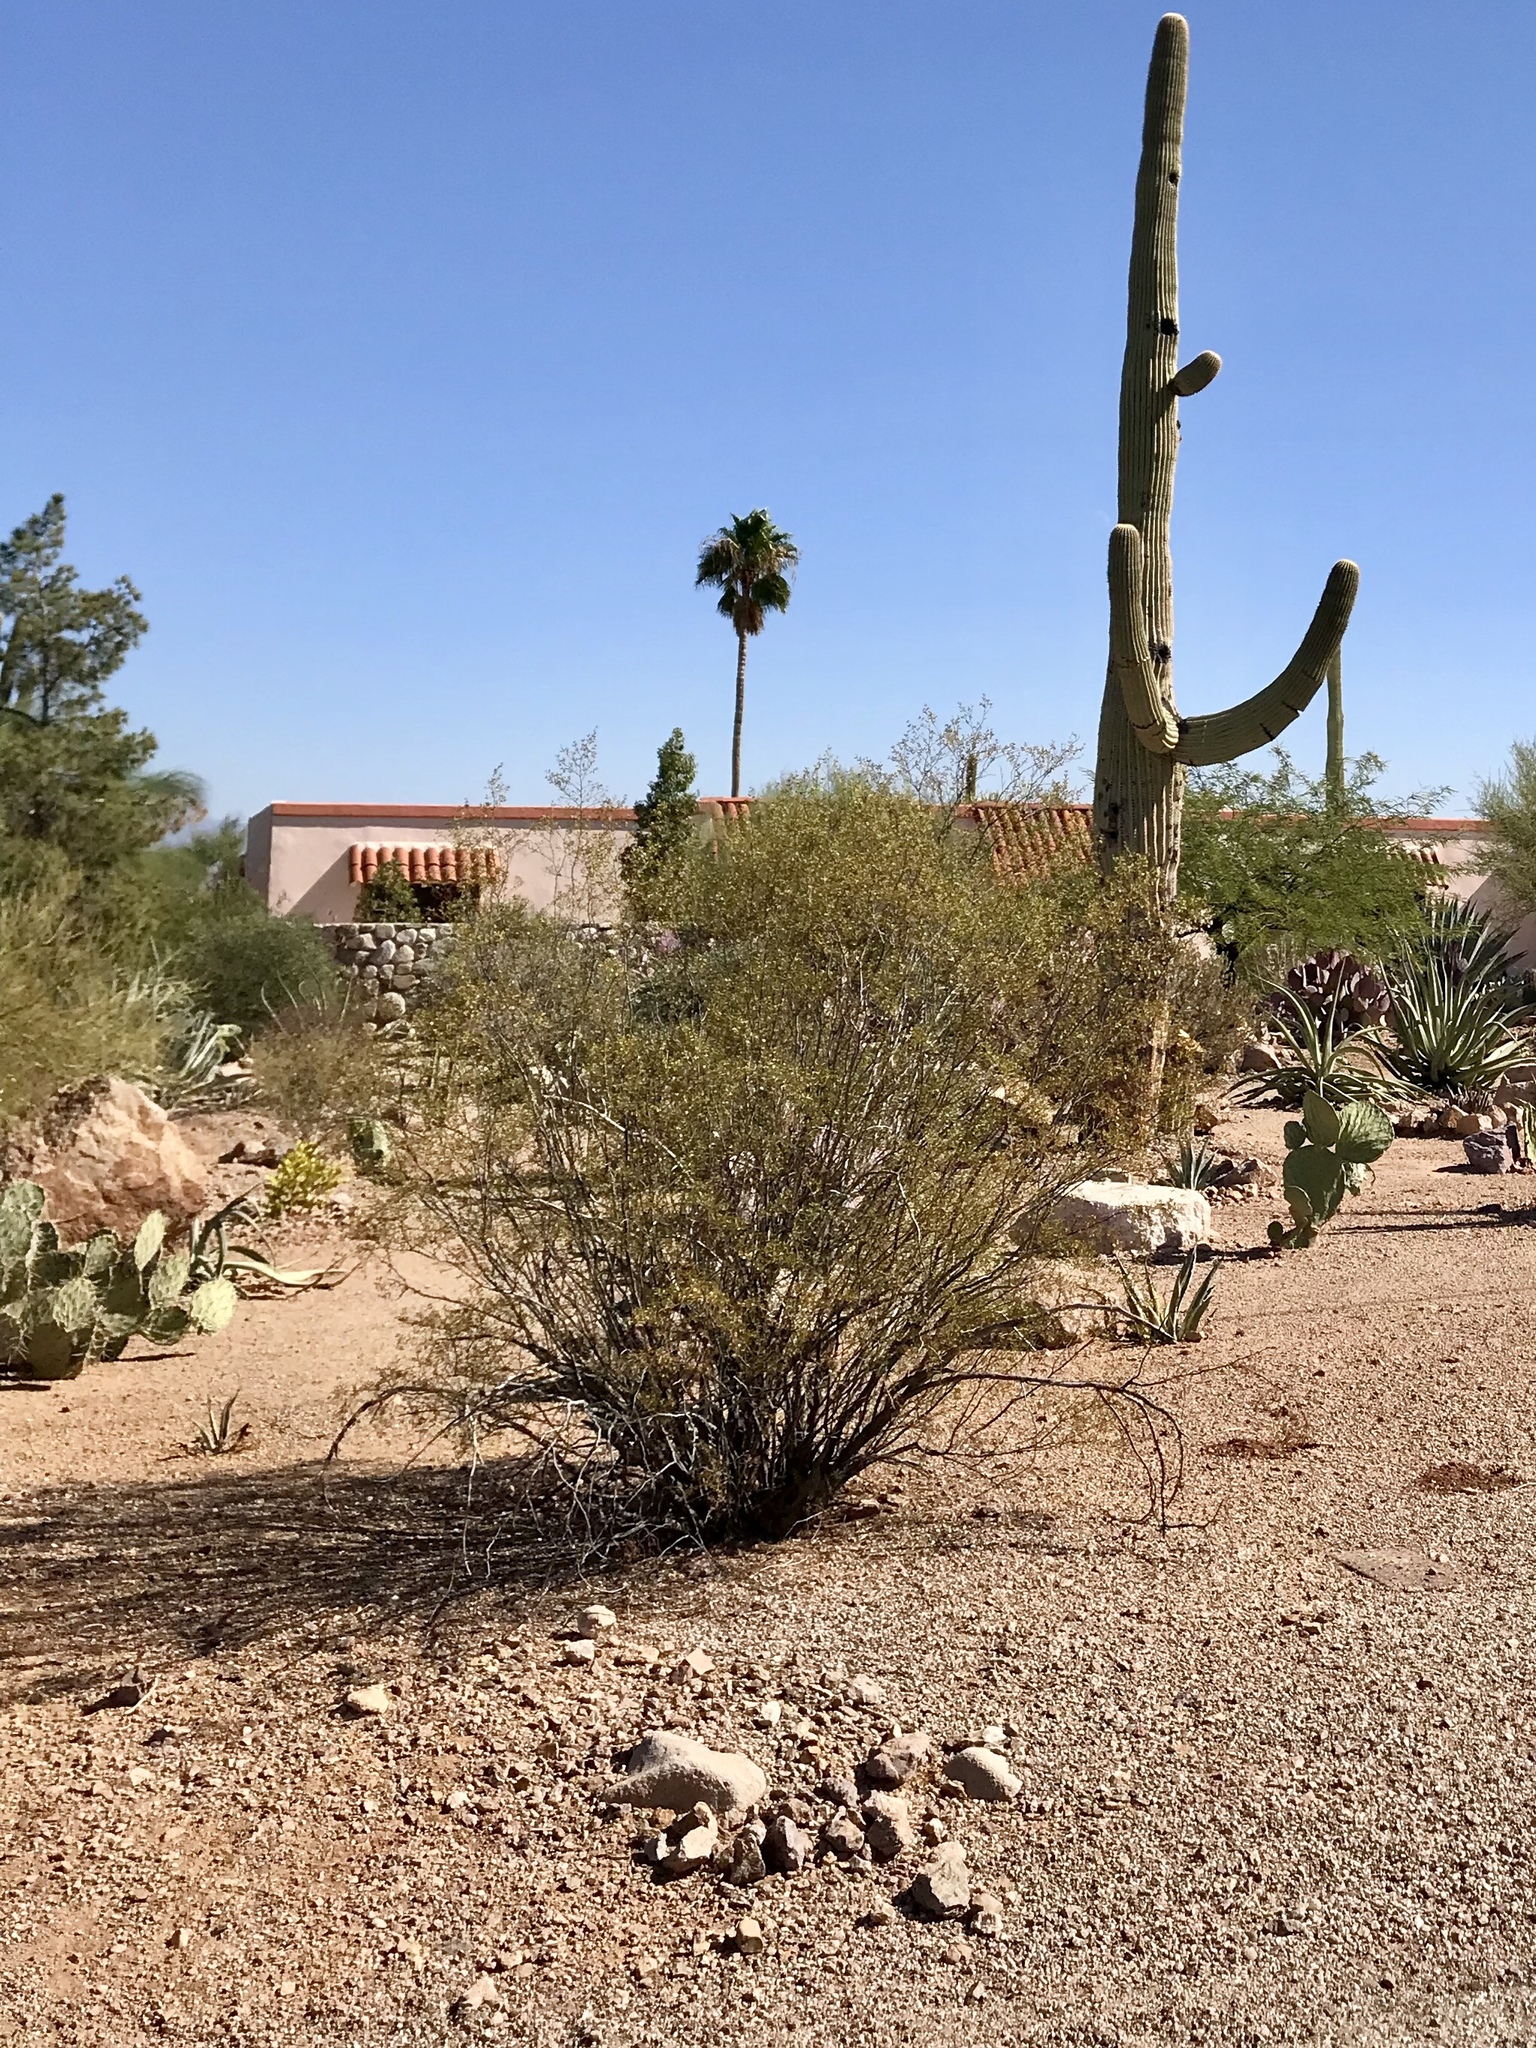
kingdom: Plantae
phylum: Tracheophyta
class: Magnoliopsida
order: Zygophyllales
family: Zygophyllaceae
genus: Larrea
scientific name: Larrea tridentata
